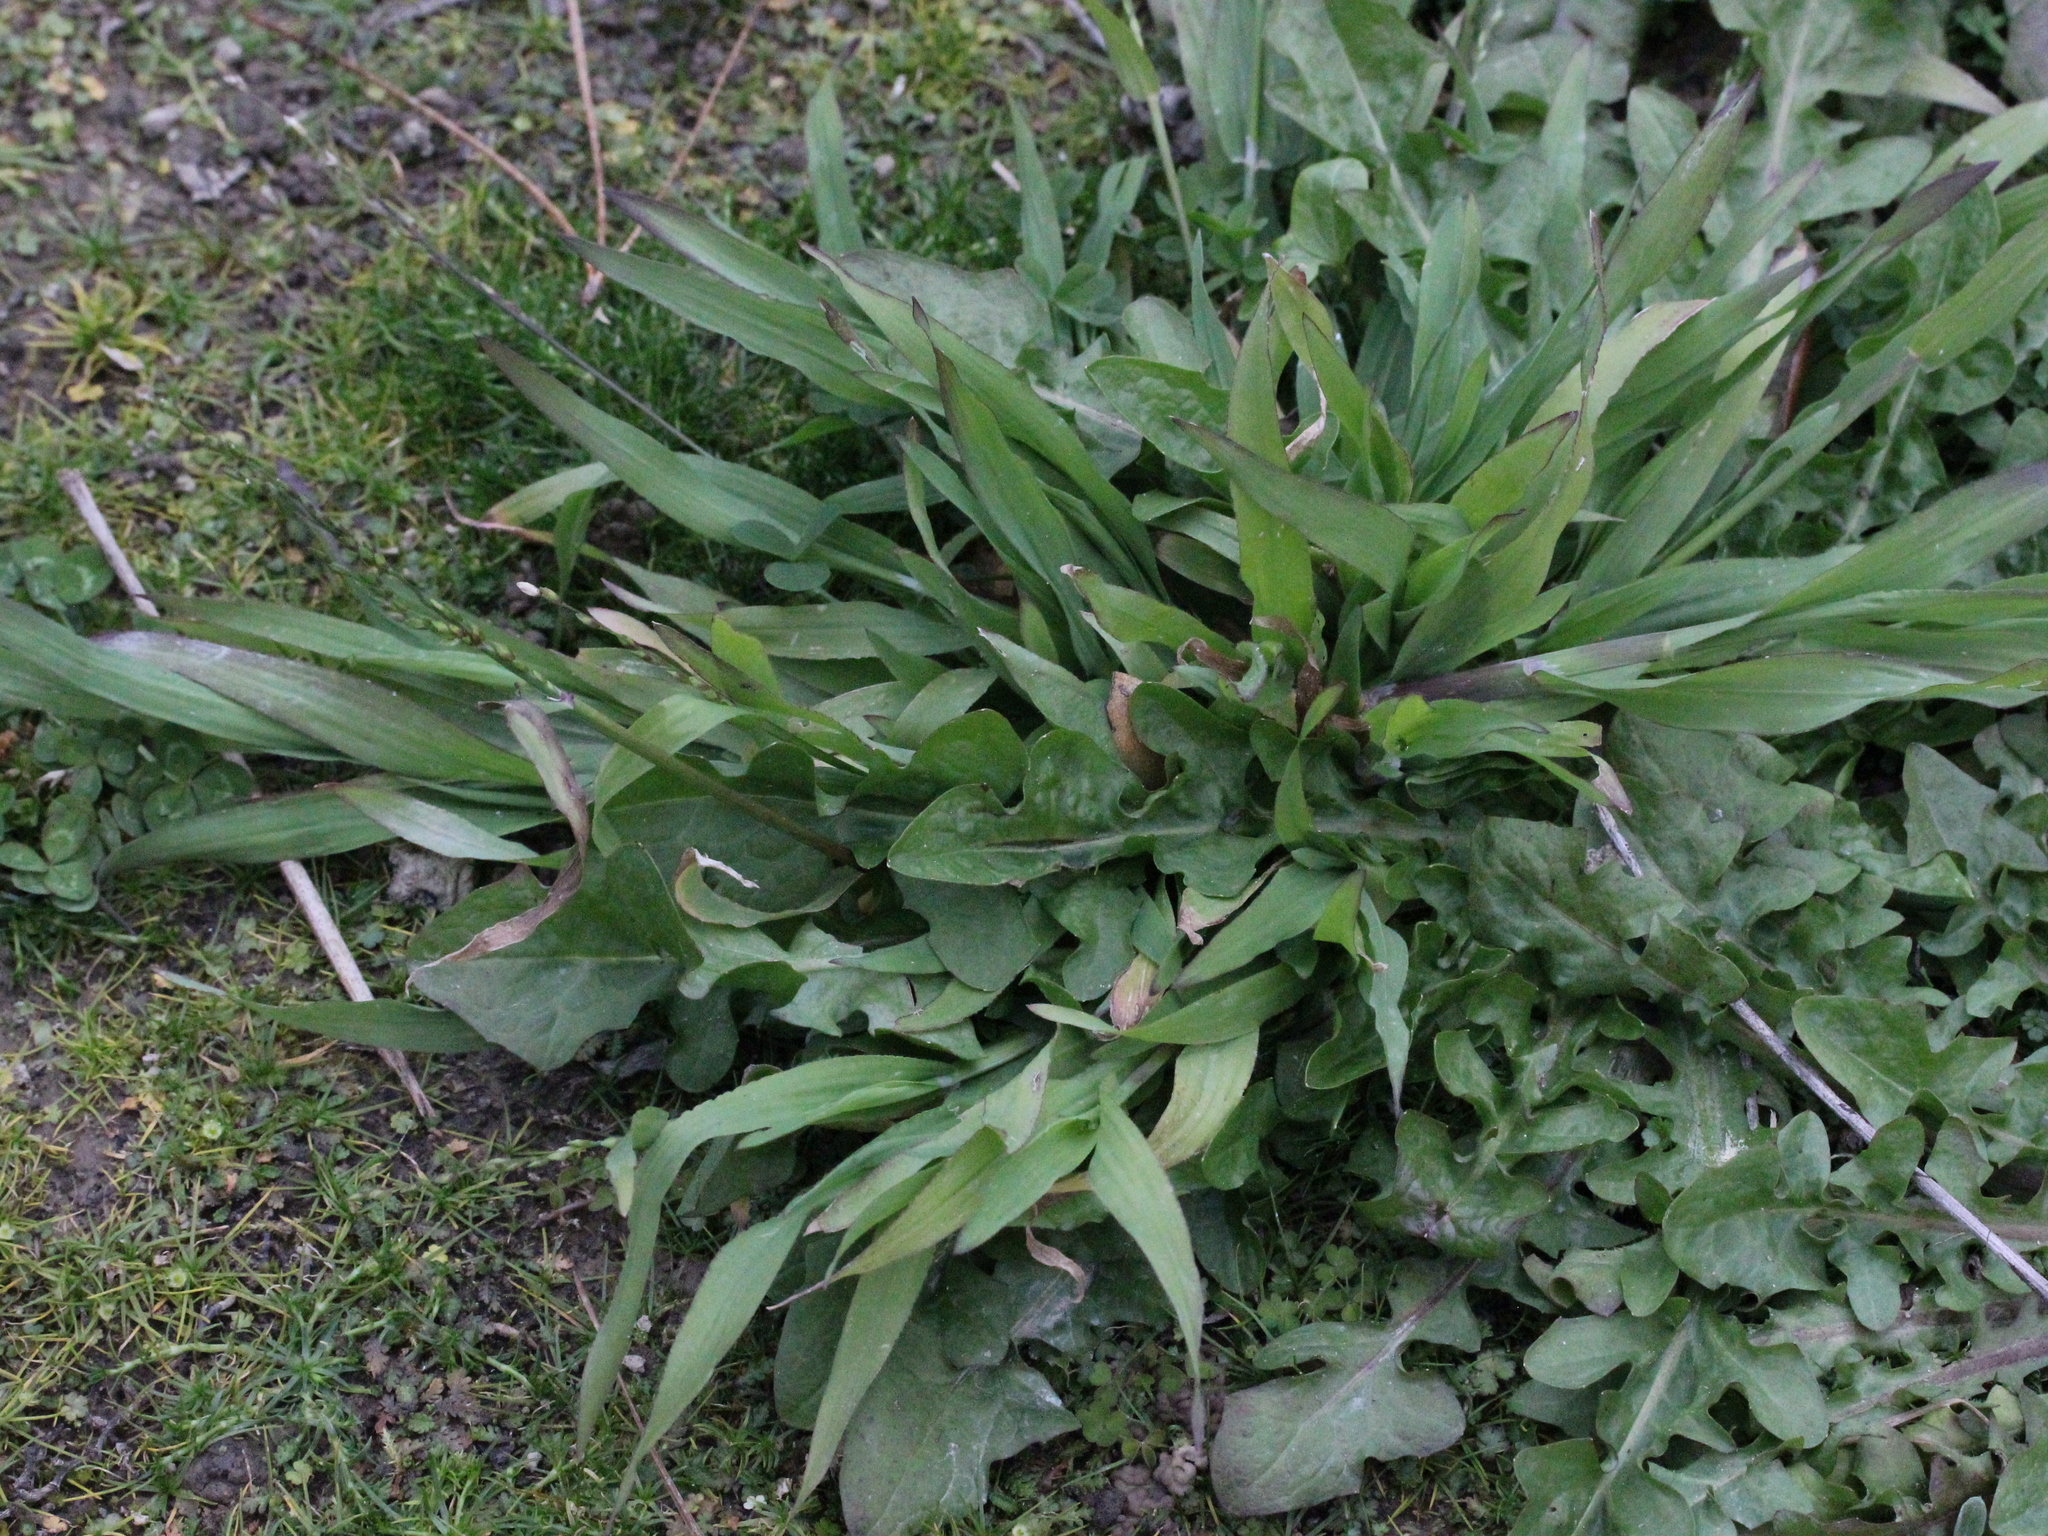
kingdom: Plantae
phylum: Tracheophyta
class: Liliopsida
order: Poales
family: Poaceae
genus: Ehrharta
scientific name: Ehrharta erecta
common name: Panic veldtgrass
